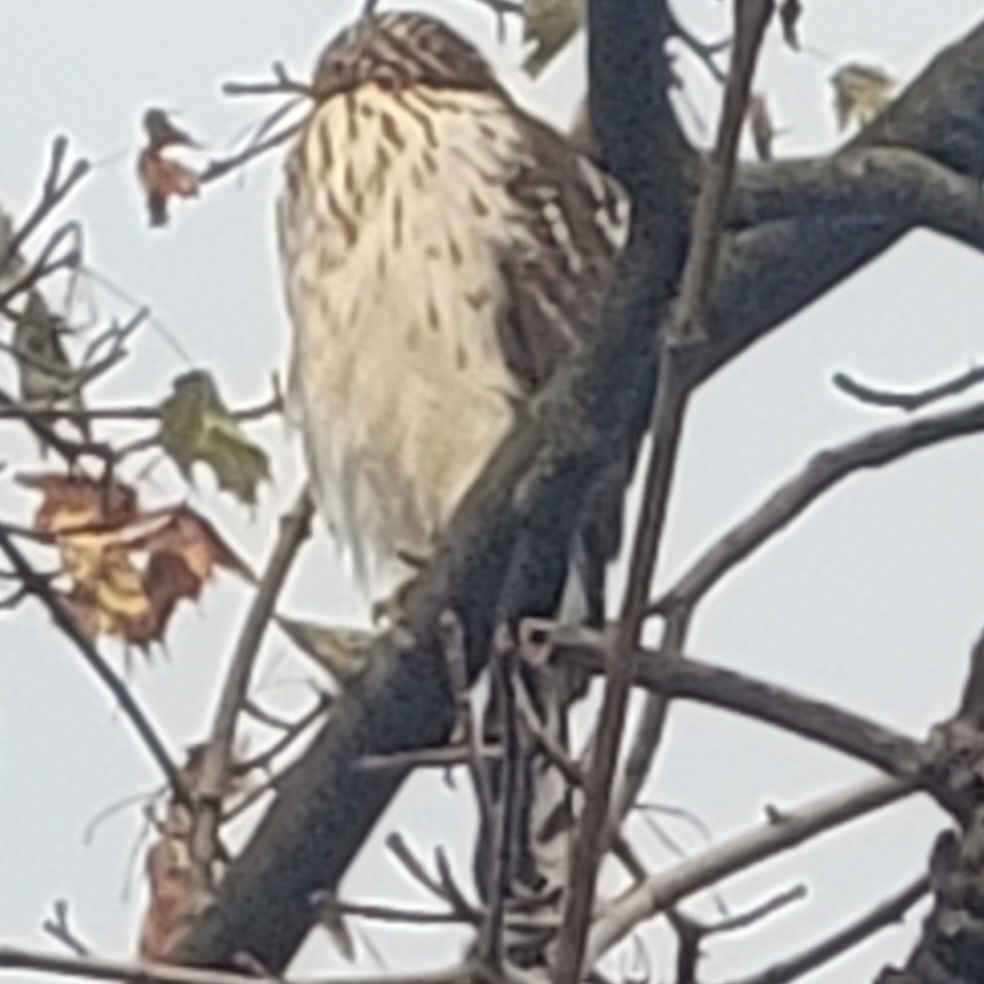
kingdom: Animalia
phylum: Chordata
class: Aves
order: Accipitriformes
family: Accipitridae
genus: Accipiter
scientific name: Accipiter cooperii
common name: Cooper's hawk
